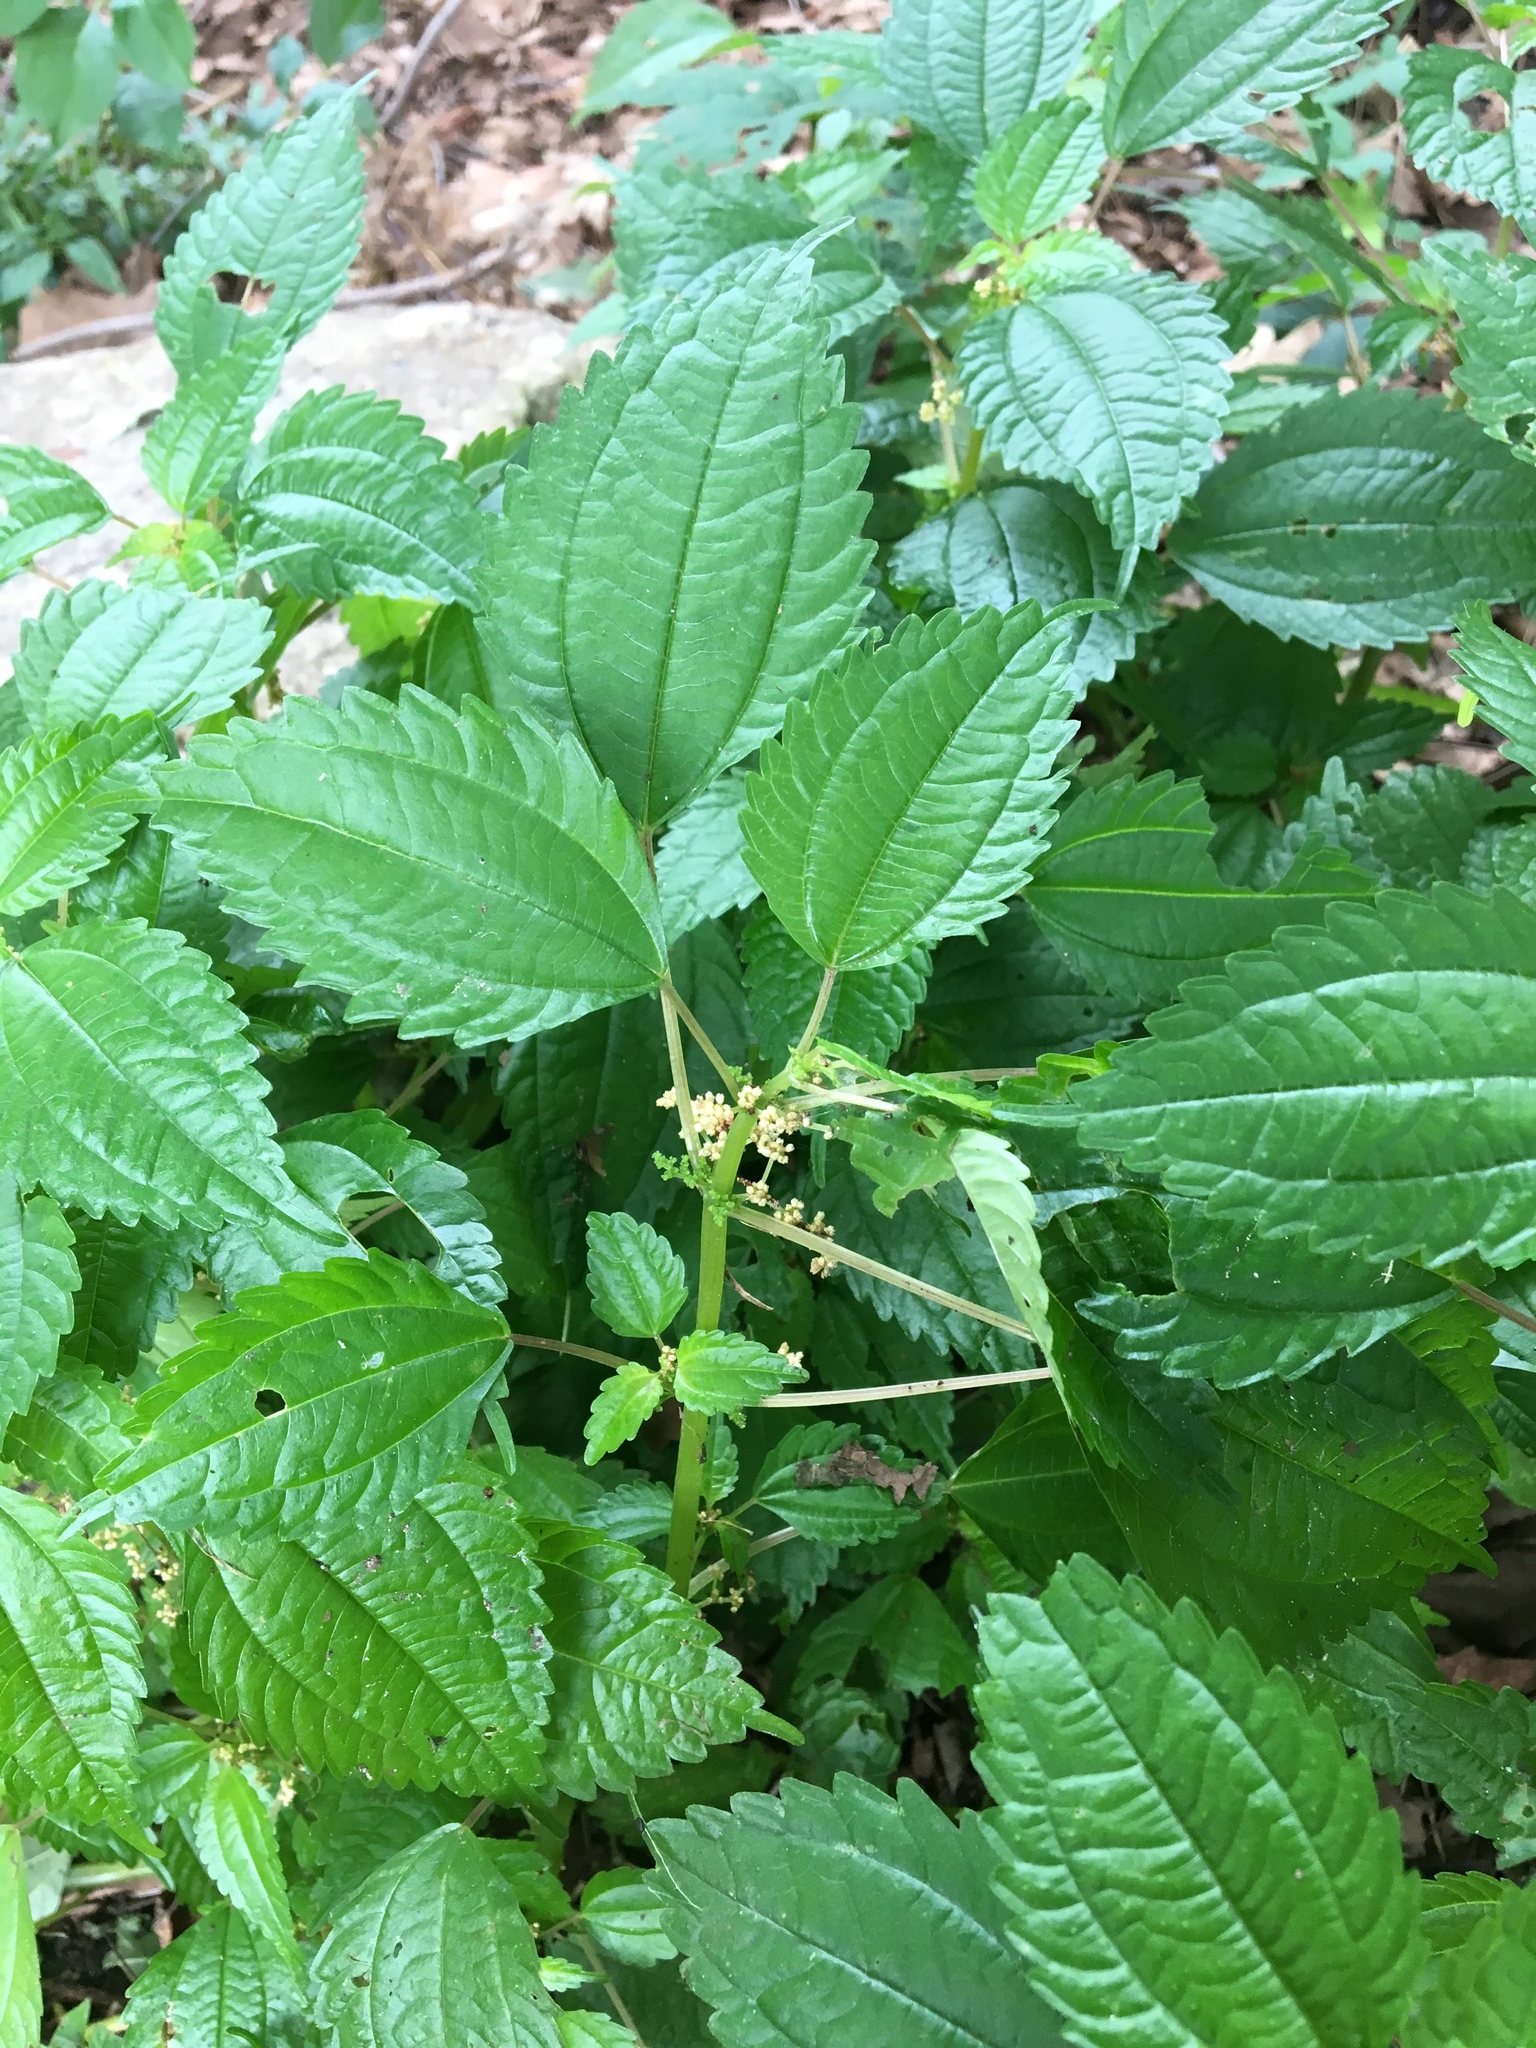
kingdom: Plantae
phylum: Tracheophyta
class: Magnoliopsida
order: Rosales
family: Urticaceae
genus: Pilea
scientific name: Pilea pumila
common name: Clearweed
